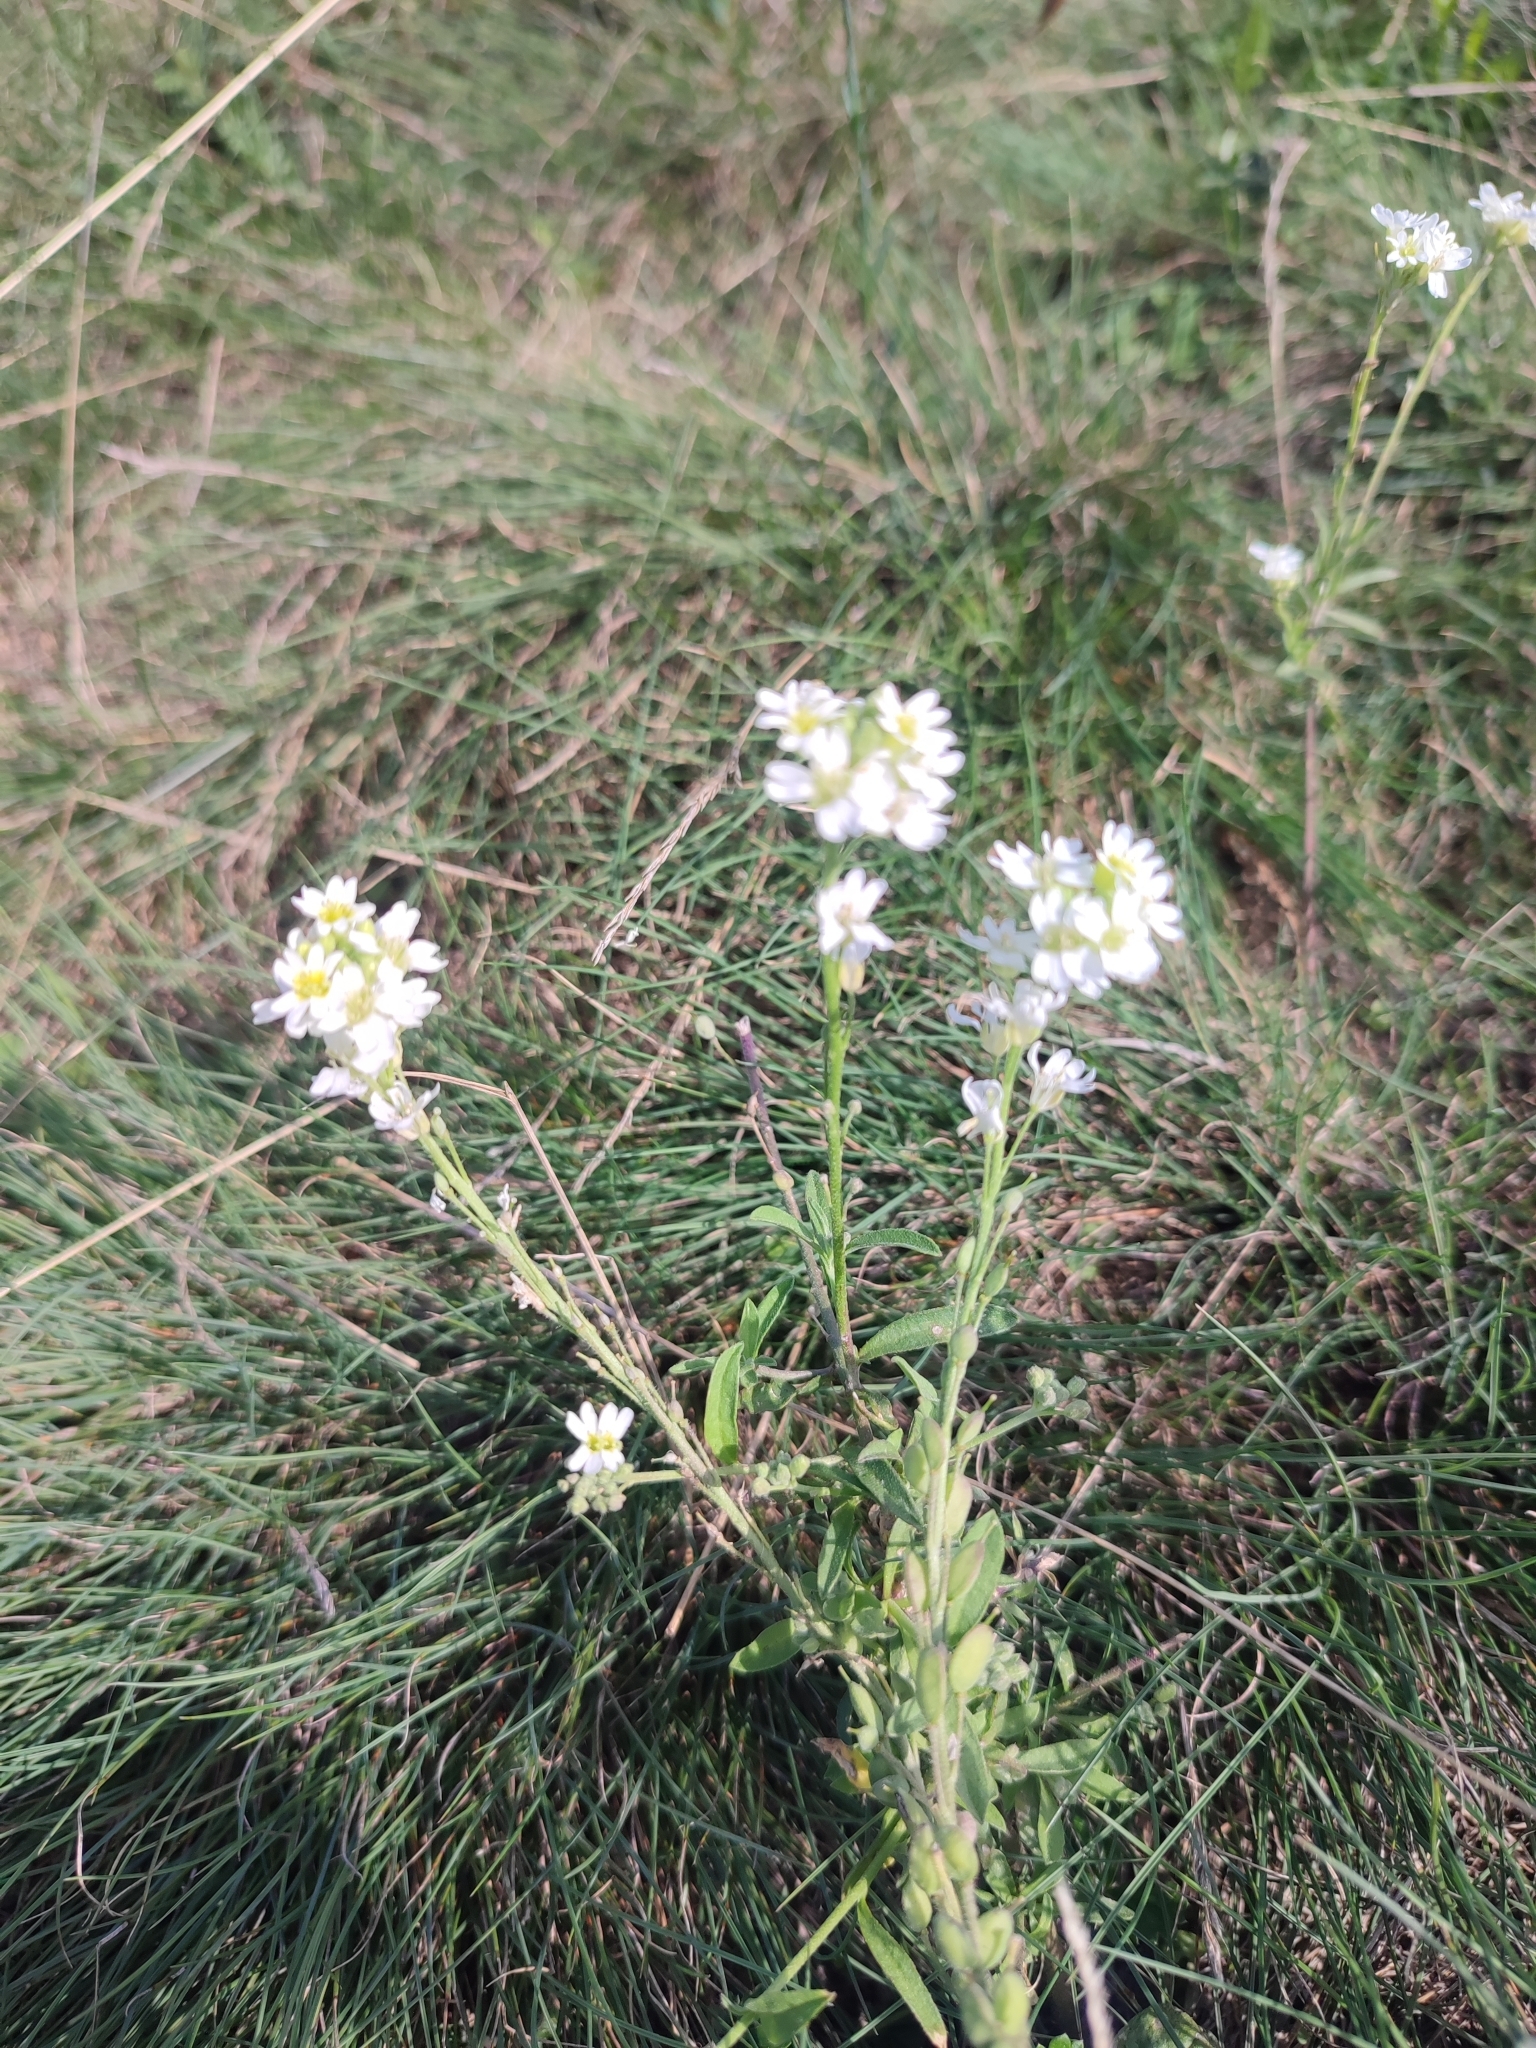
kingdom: Plantae
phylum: Tracheophyta
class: Magnoliopsida
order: Brassicales
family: Brassicaceae
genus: Berteroa
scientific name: Berteroa incana
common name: Hoary alison
